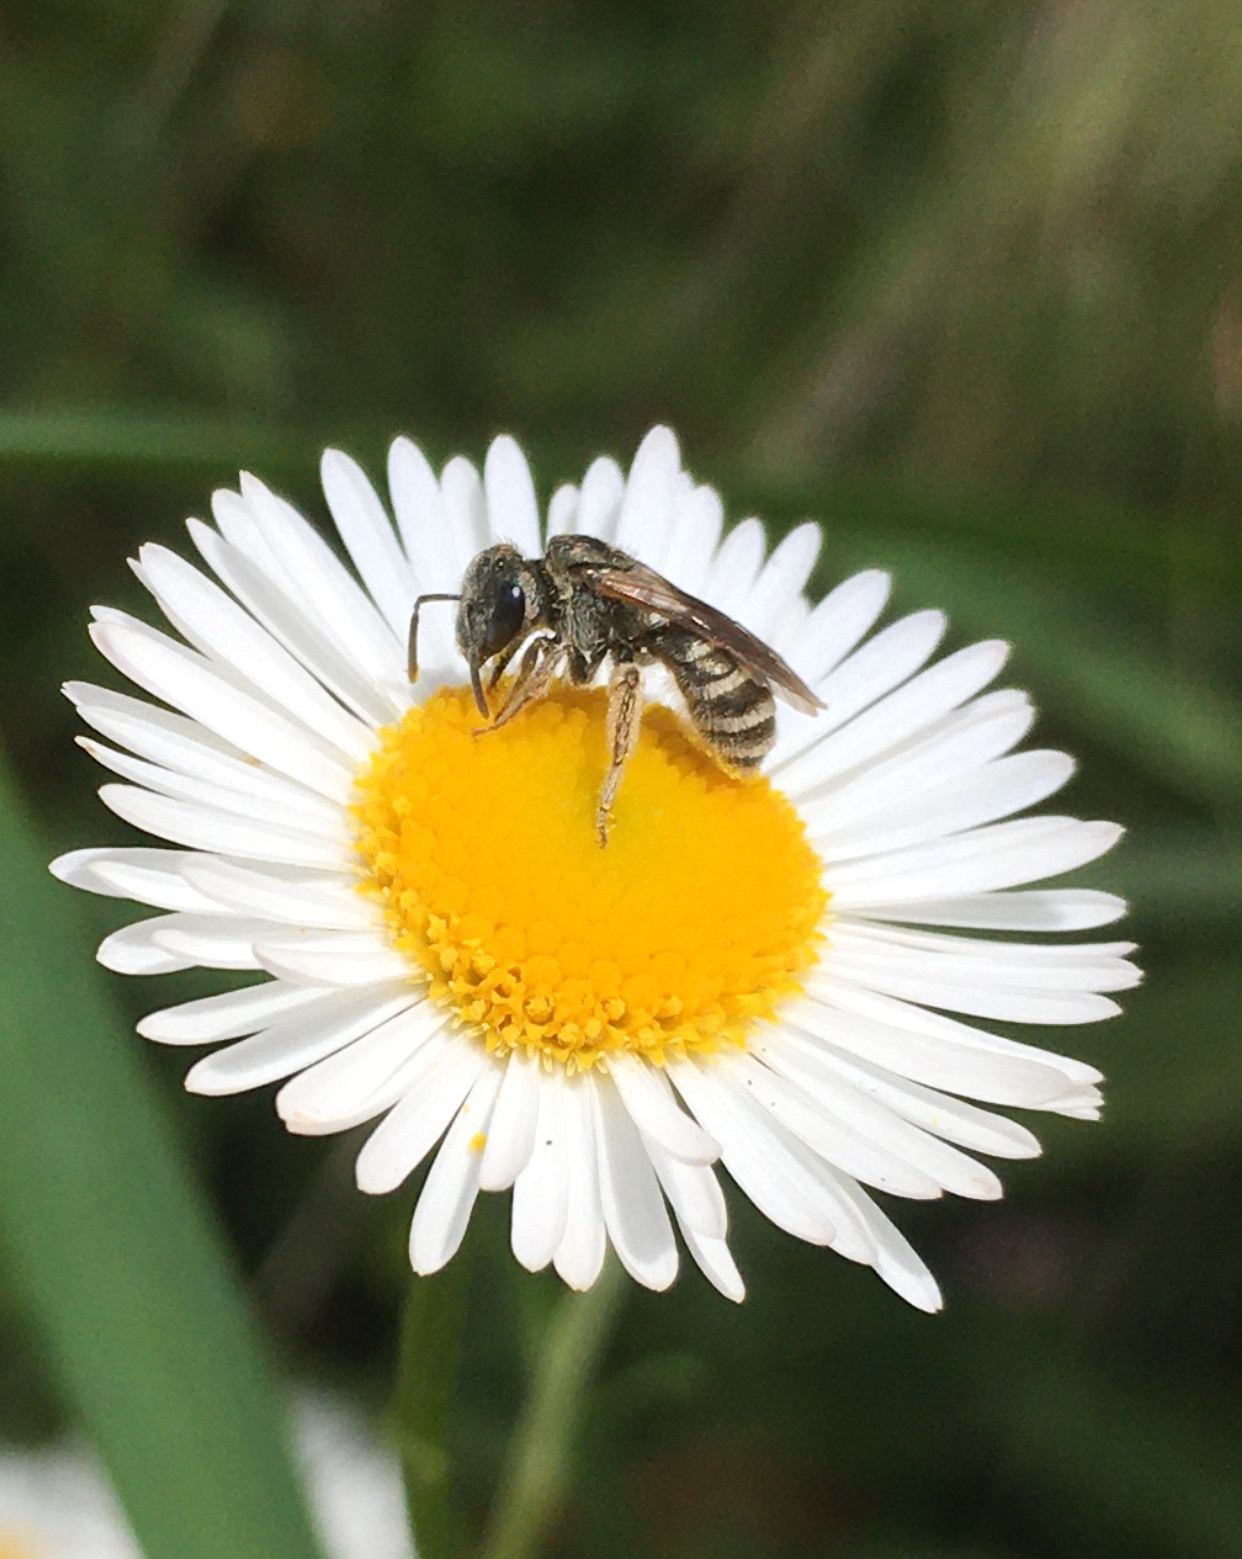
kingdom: Animalia
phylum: Arthropoda
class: Insecta
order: Hymenoptera
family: Halictidae
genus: Halictus
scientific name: Halictus tripartitus
